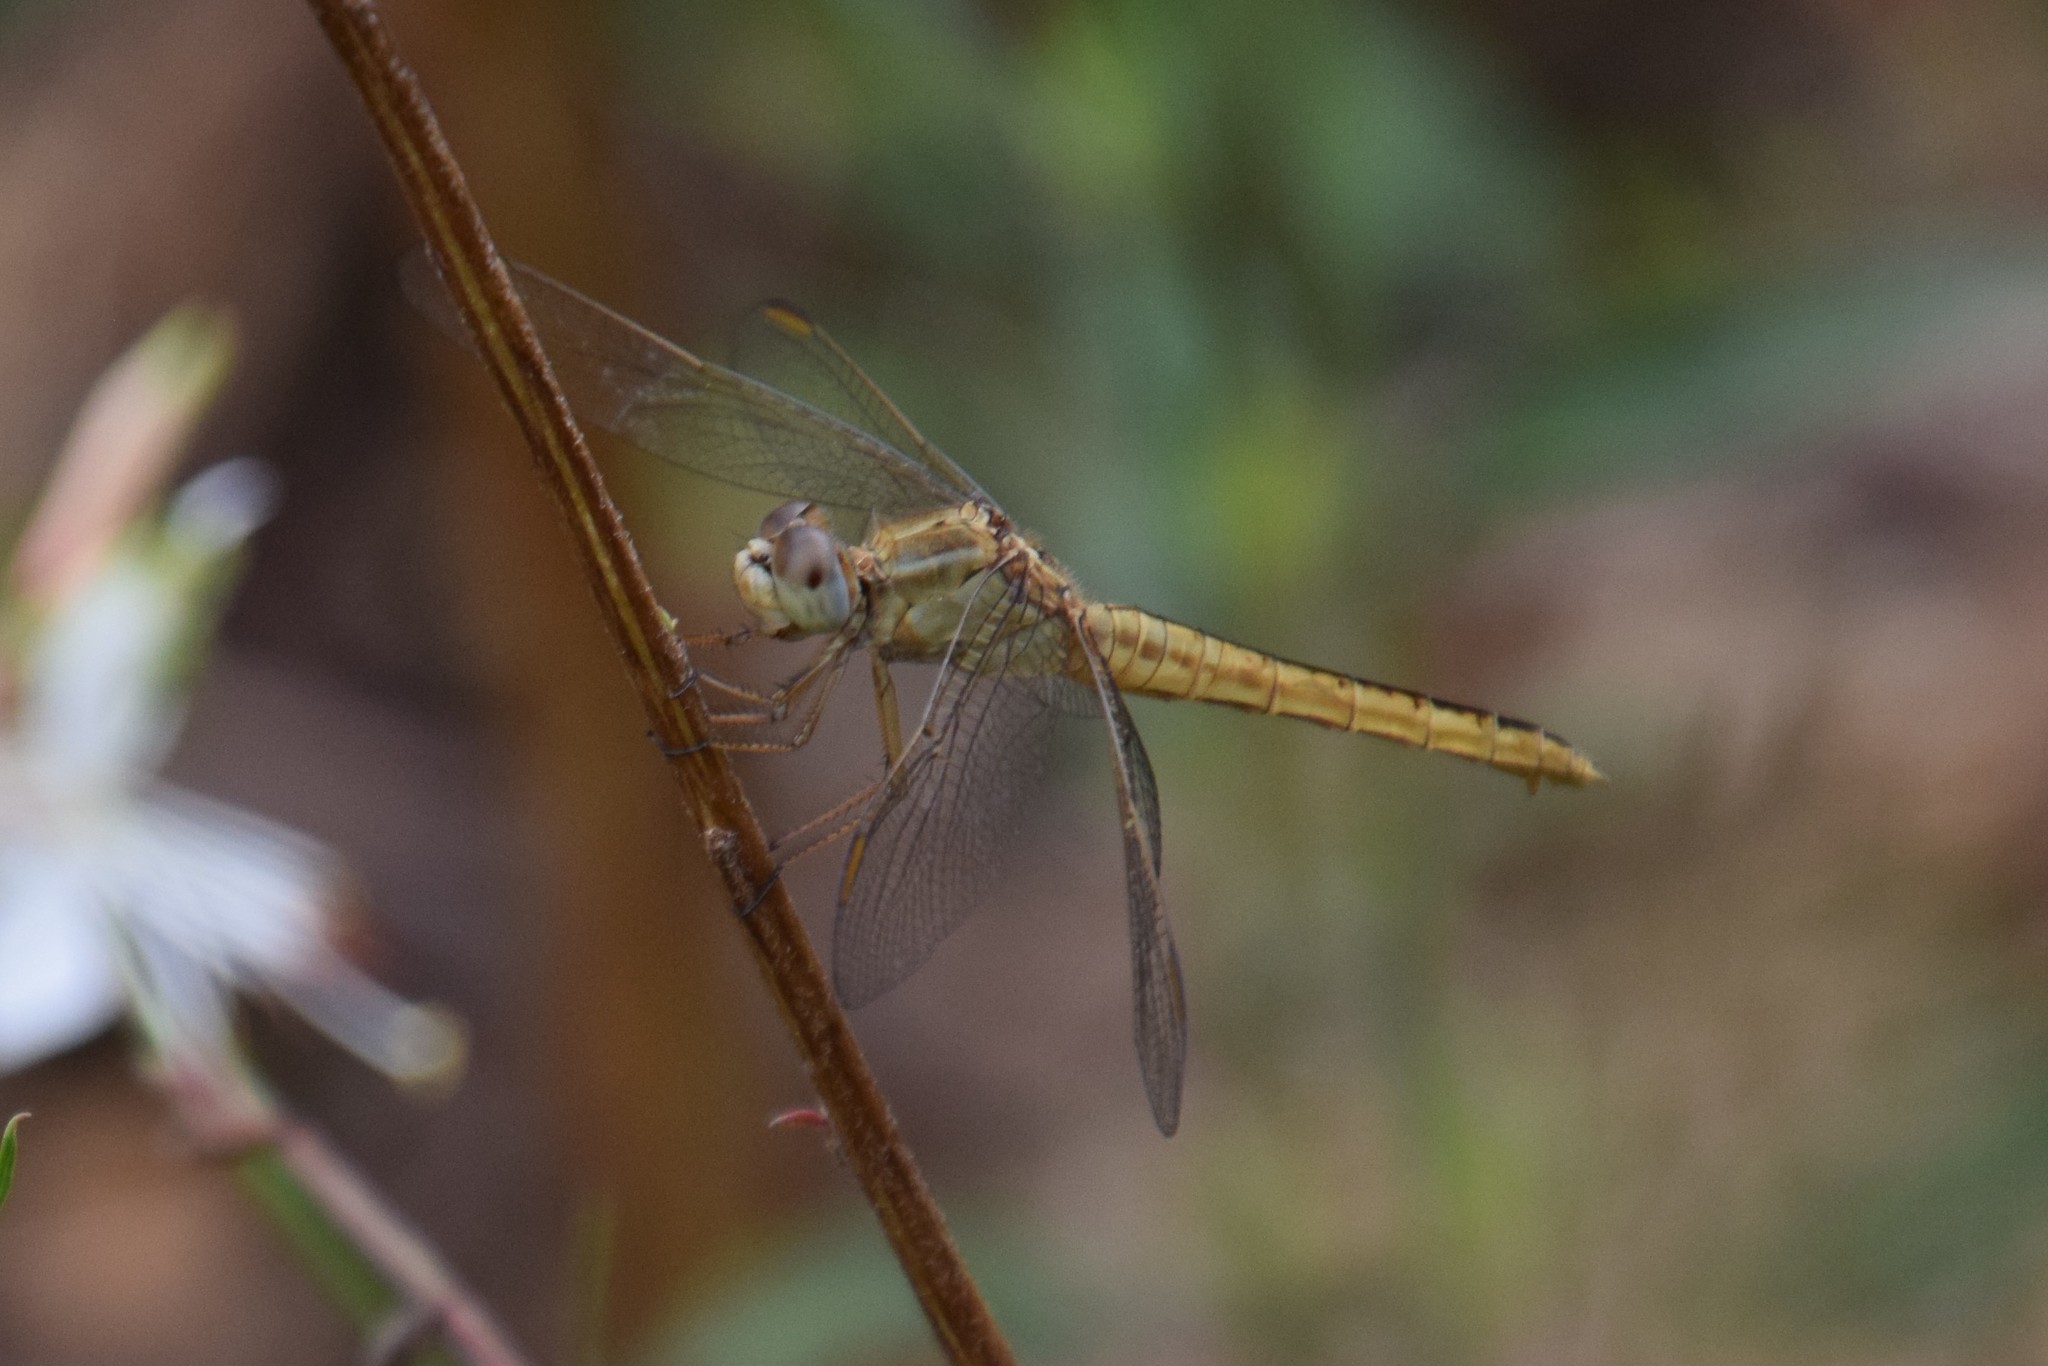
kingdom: Animalia
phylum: Arthropoda
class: Insecta
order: Odonata
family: Libellulidae
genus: Crocothemis
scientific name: Crocothemis nigrifrons
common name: Black-headed skimmer
